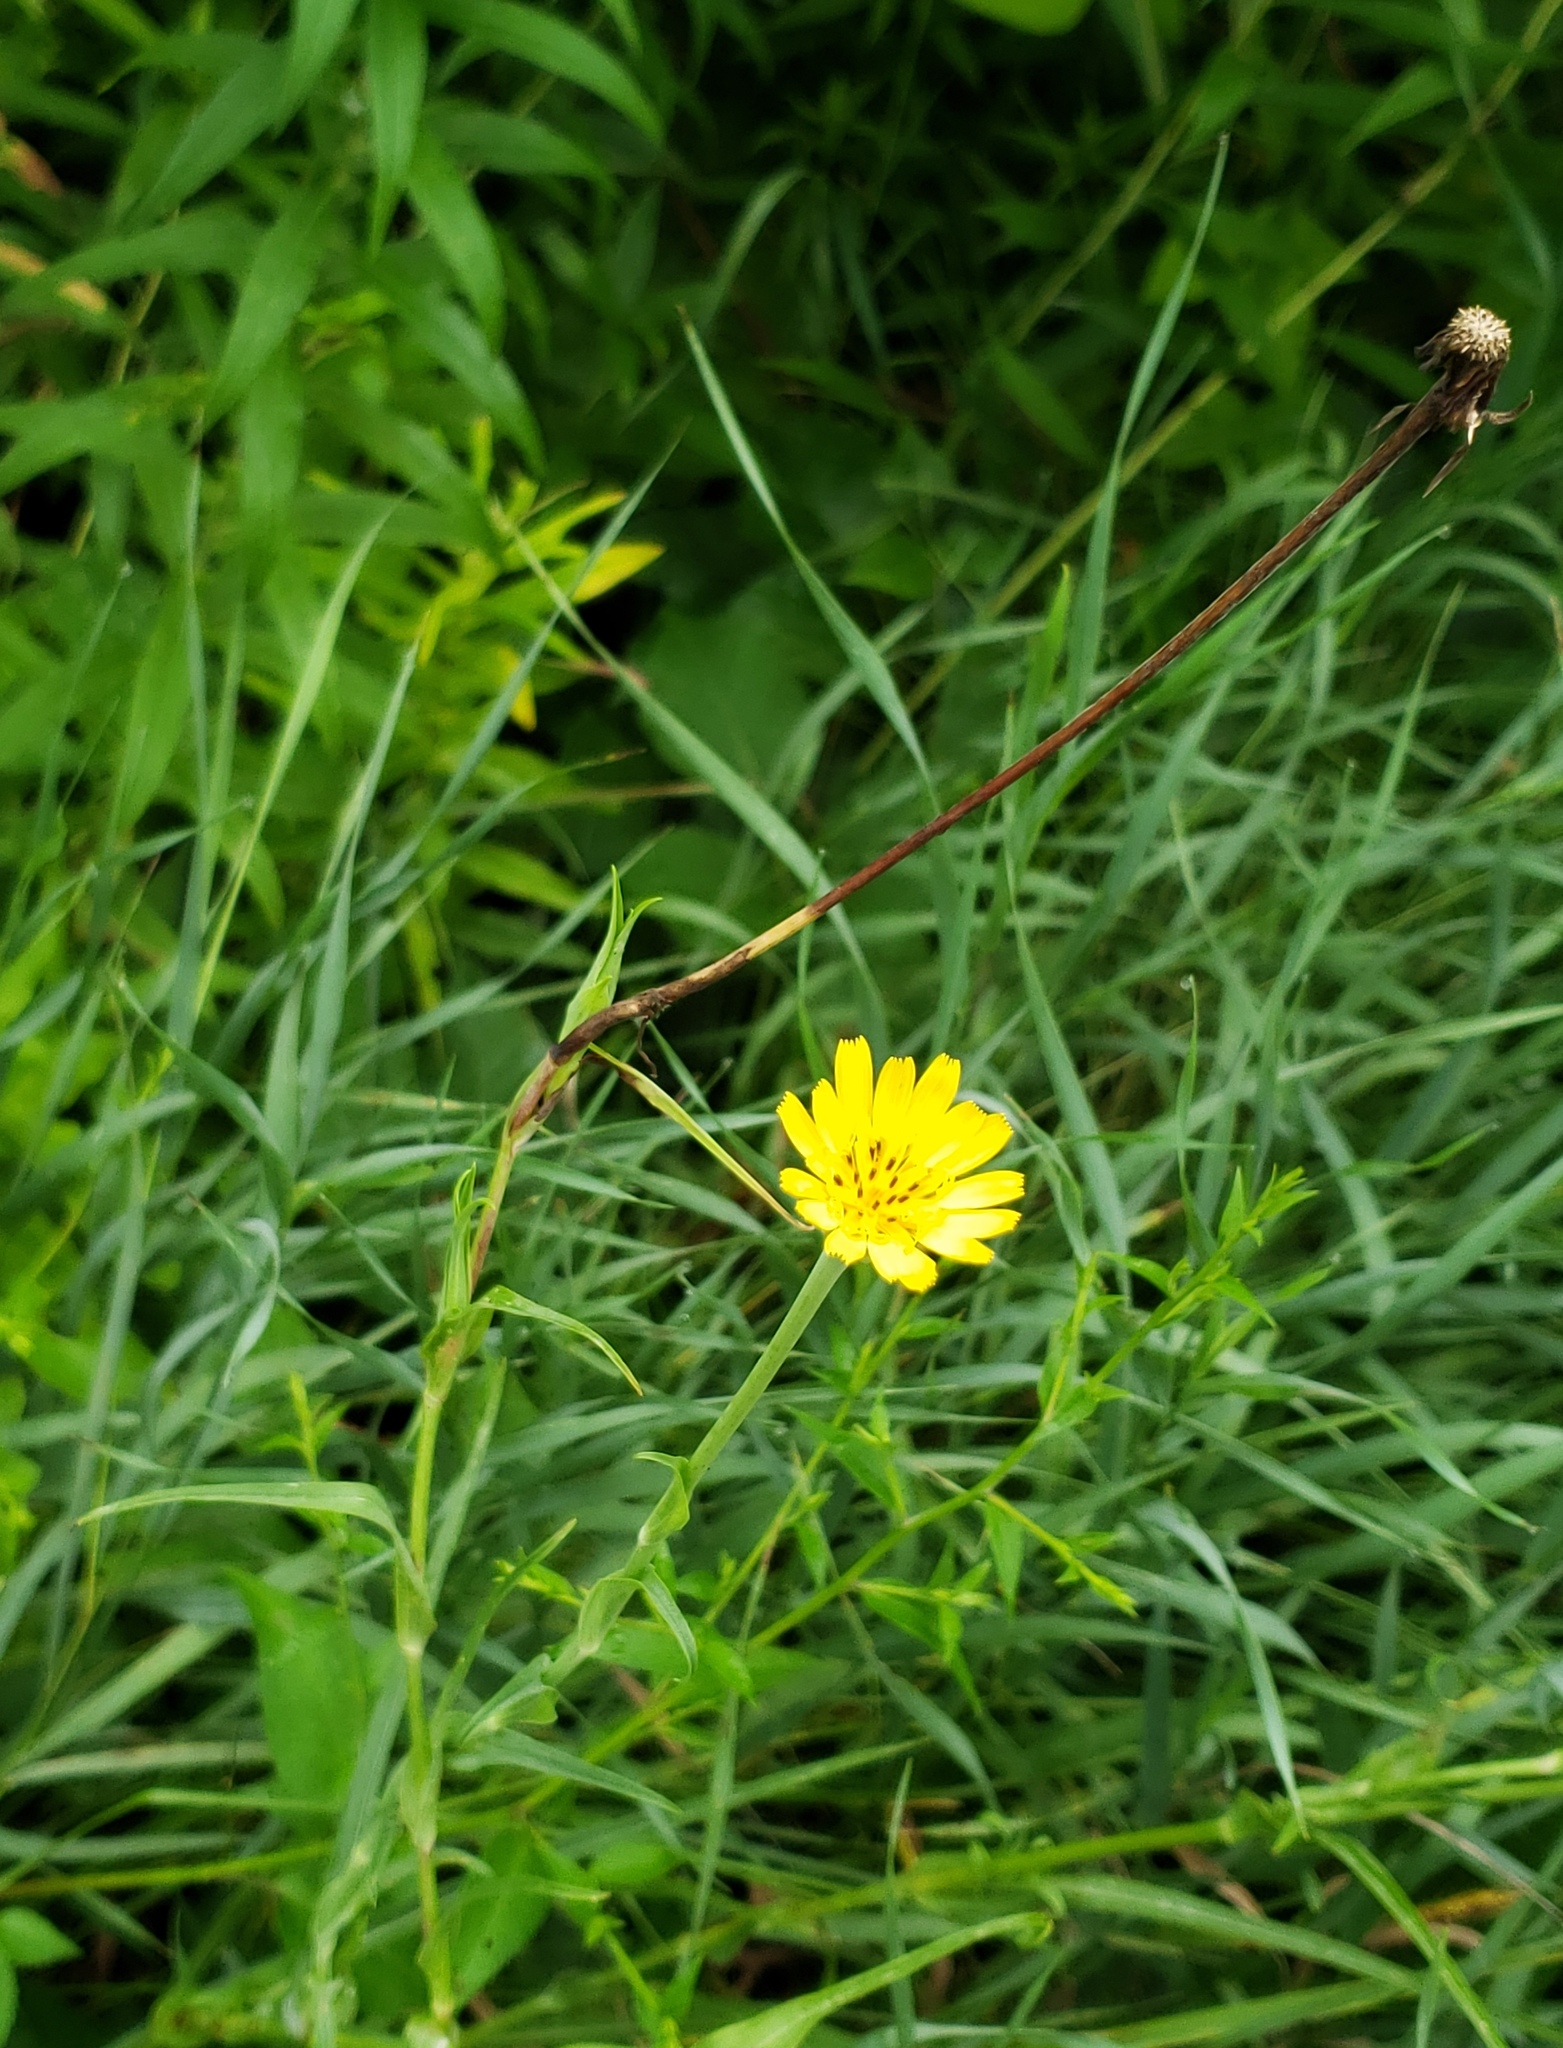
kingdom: Plantae
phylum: Tracheophyta
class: Magnoliopsida
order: Asterales
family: Asteraceae
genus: Tragopogon
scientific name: Tragopogon pratensis
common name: Goat's-beard
